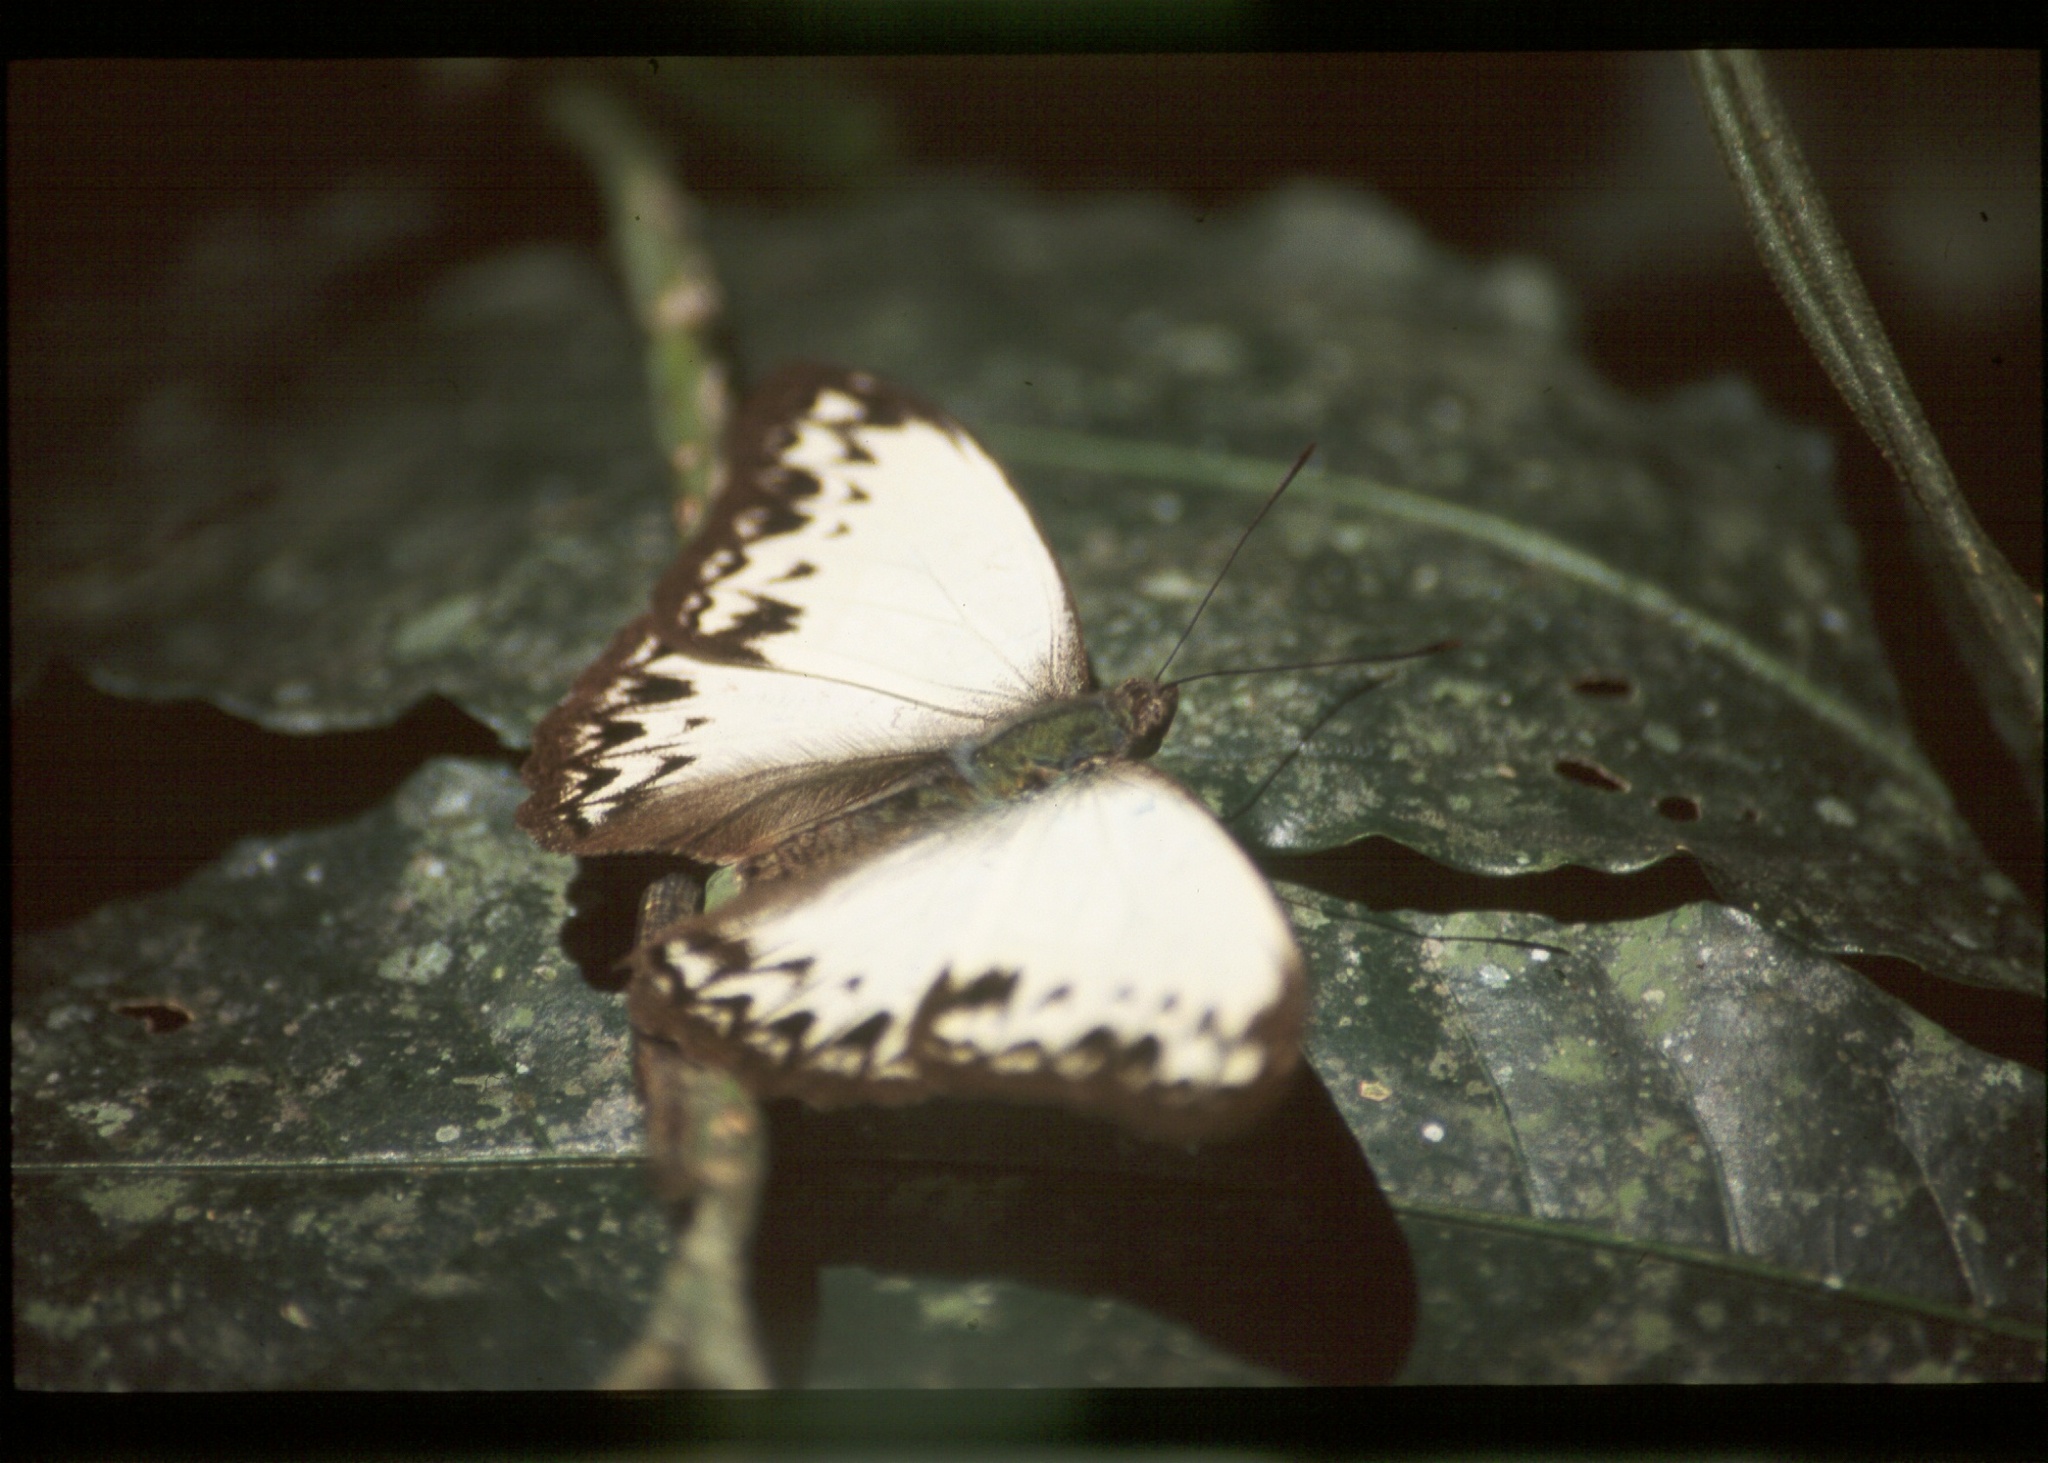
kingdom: Animalia
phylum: Arthropoda
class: Insecta
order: Lepidoptera
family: Nymphalidae
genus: Cymothoe
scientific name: Cymothoe caenis
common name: Common glider
